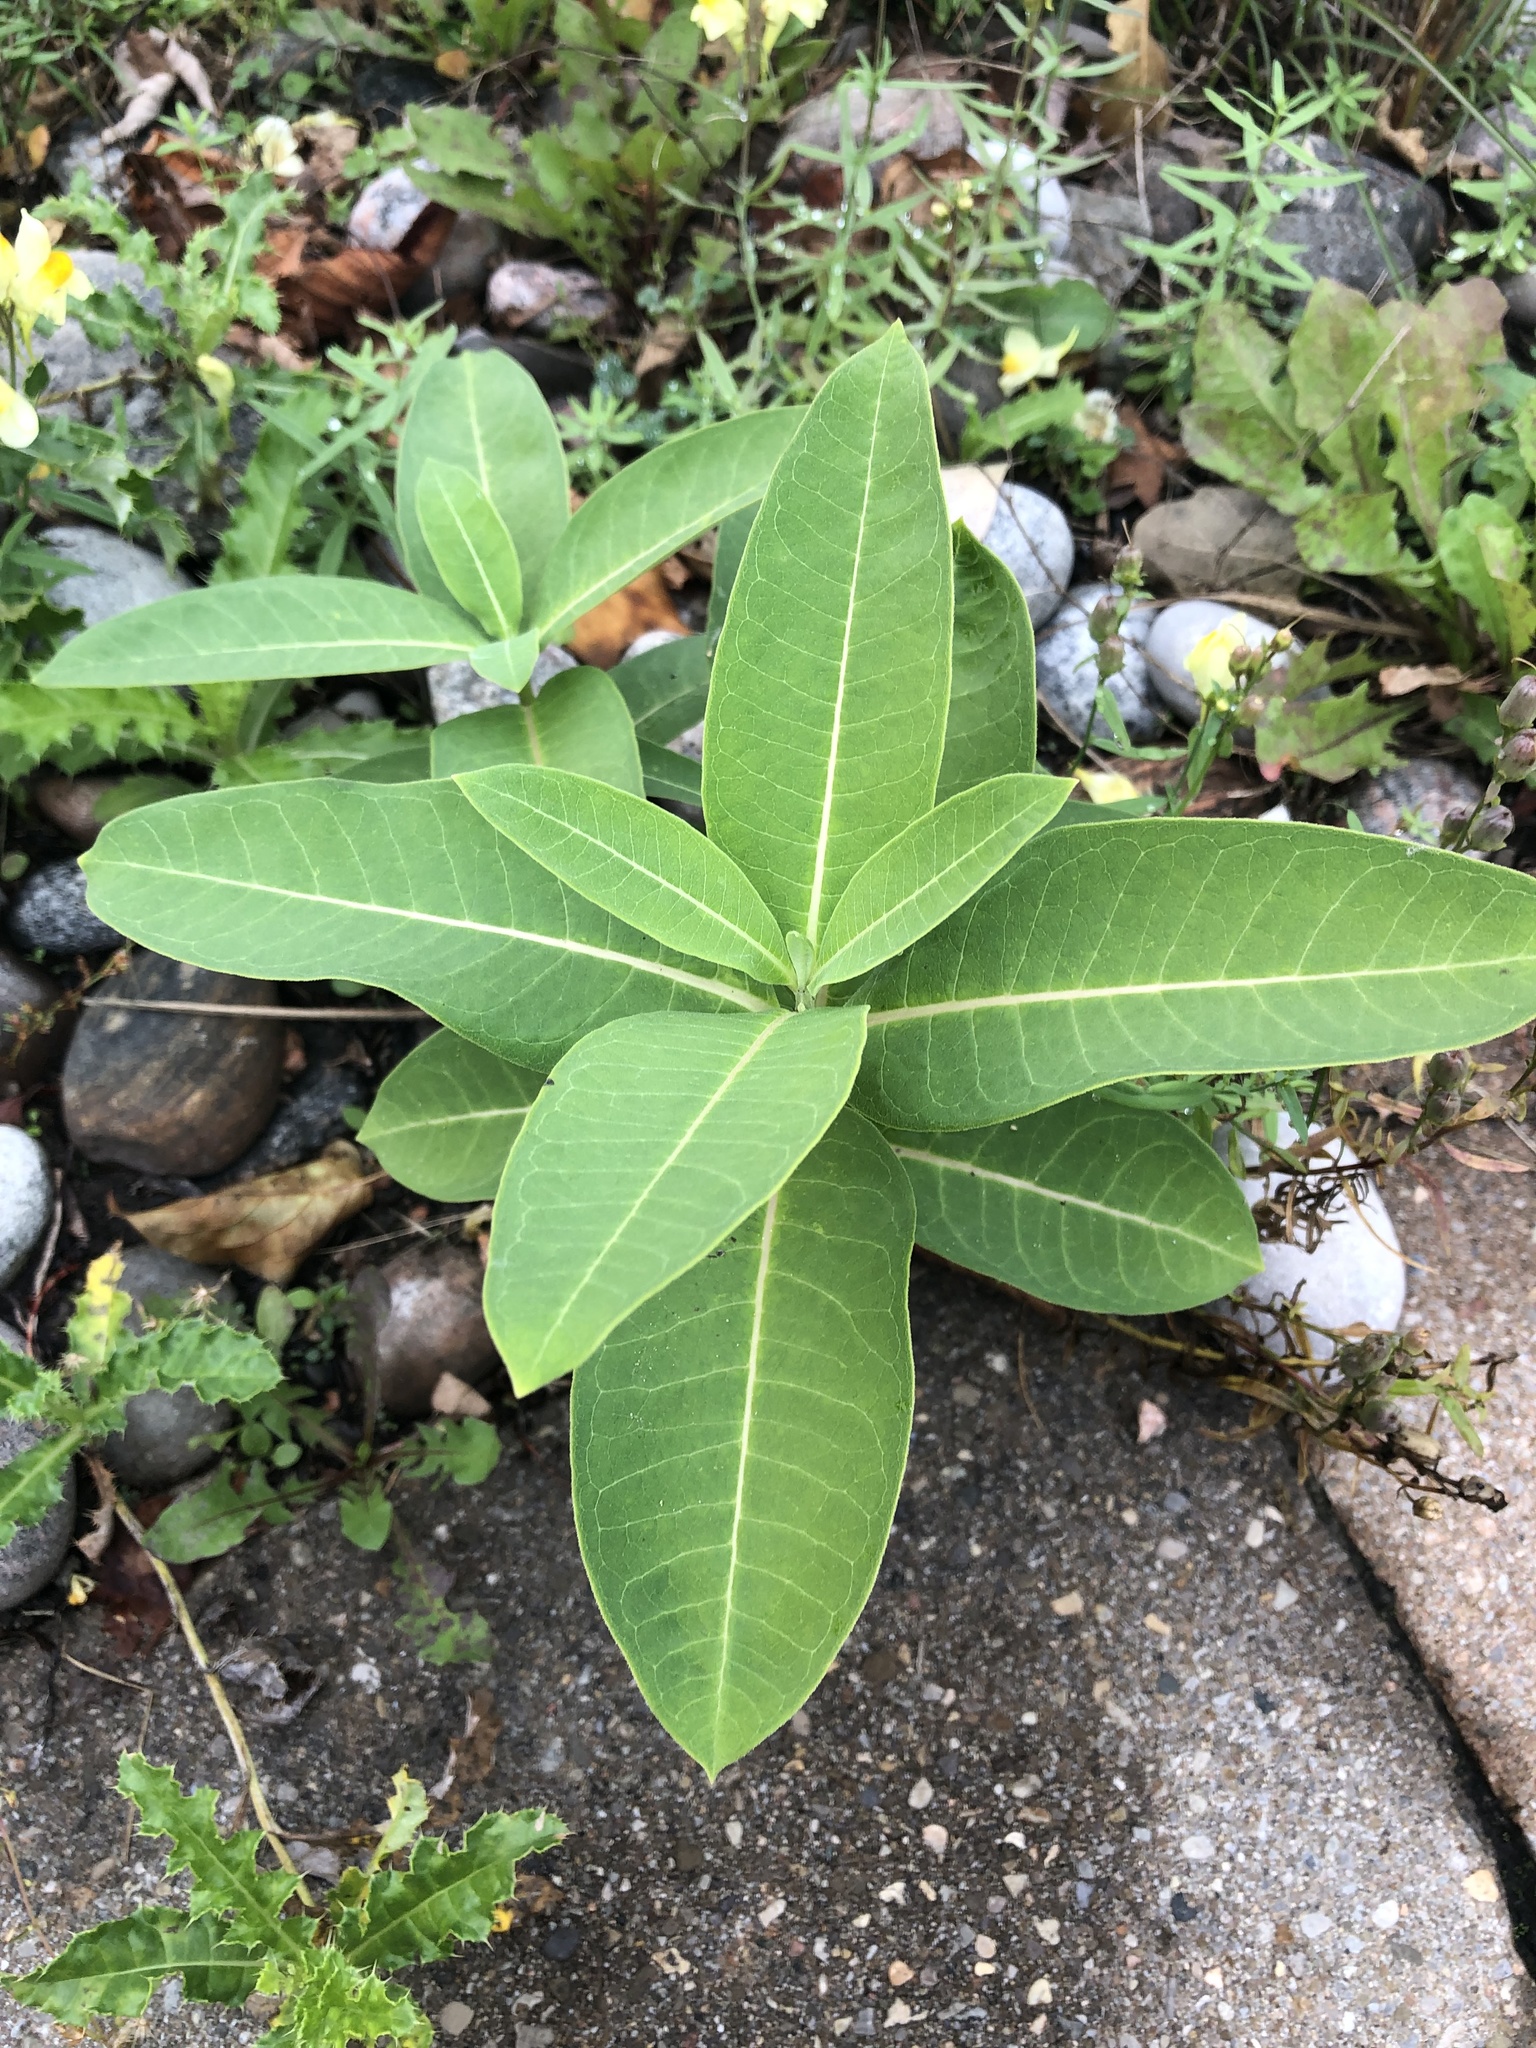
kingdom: Plantae
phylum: Tracheophyta
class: Magnoliopsida
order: Gentianales
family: Apocynaceae
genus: Asclepias
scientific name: Asclepias syriaca
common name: Common milkweed
